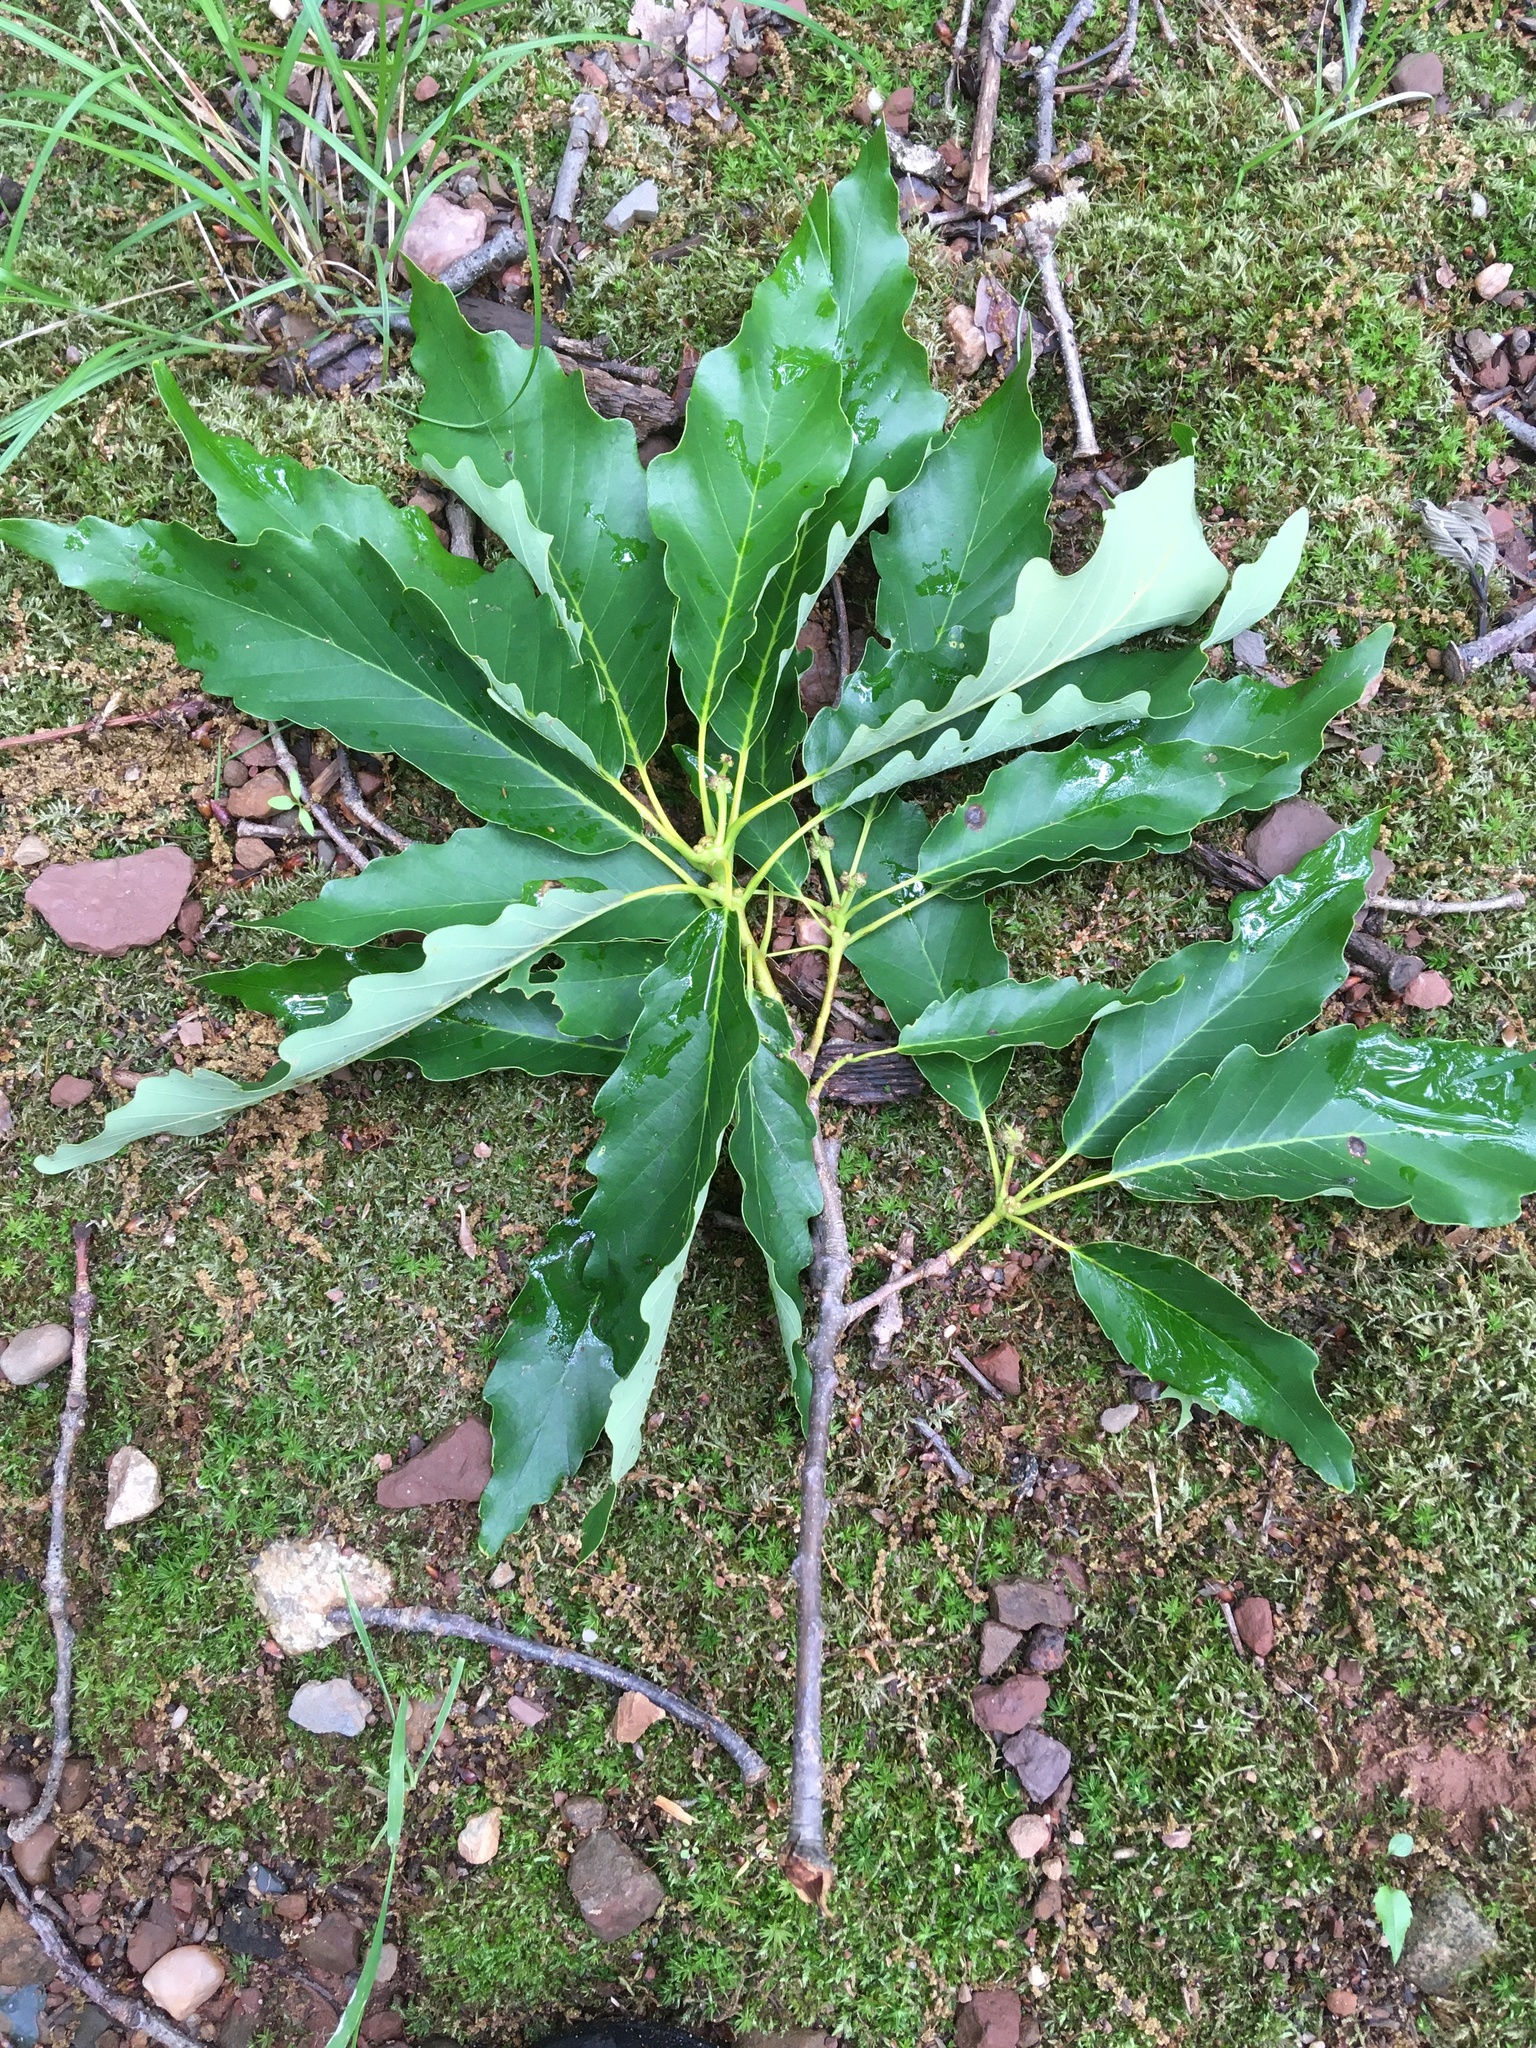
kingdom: Plantae
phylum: Tracheophyta
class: Magnoliopsida
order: Fagales
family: Fagaceae
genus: Quercus
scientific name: Quercus montana
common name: Chestnut oak
